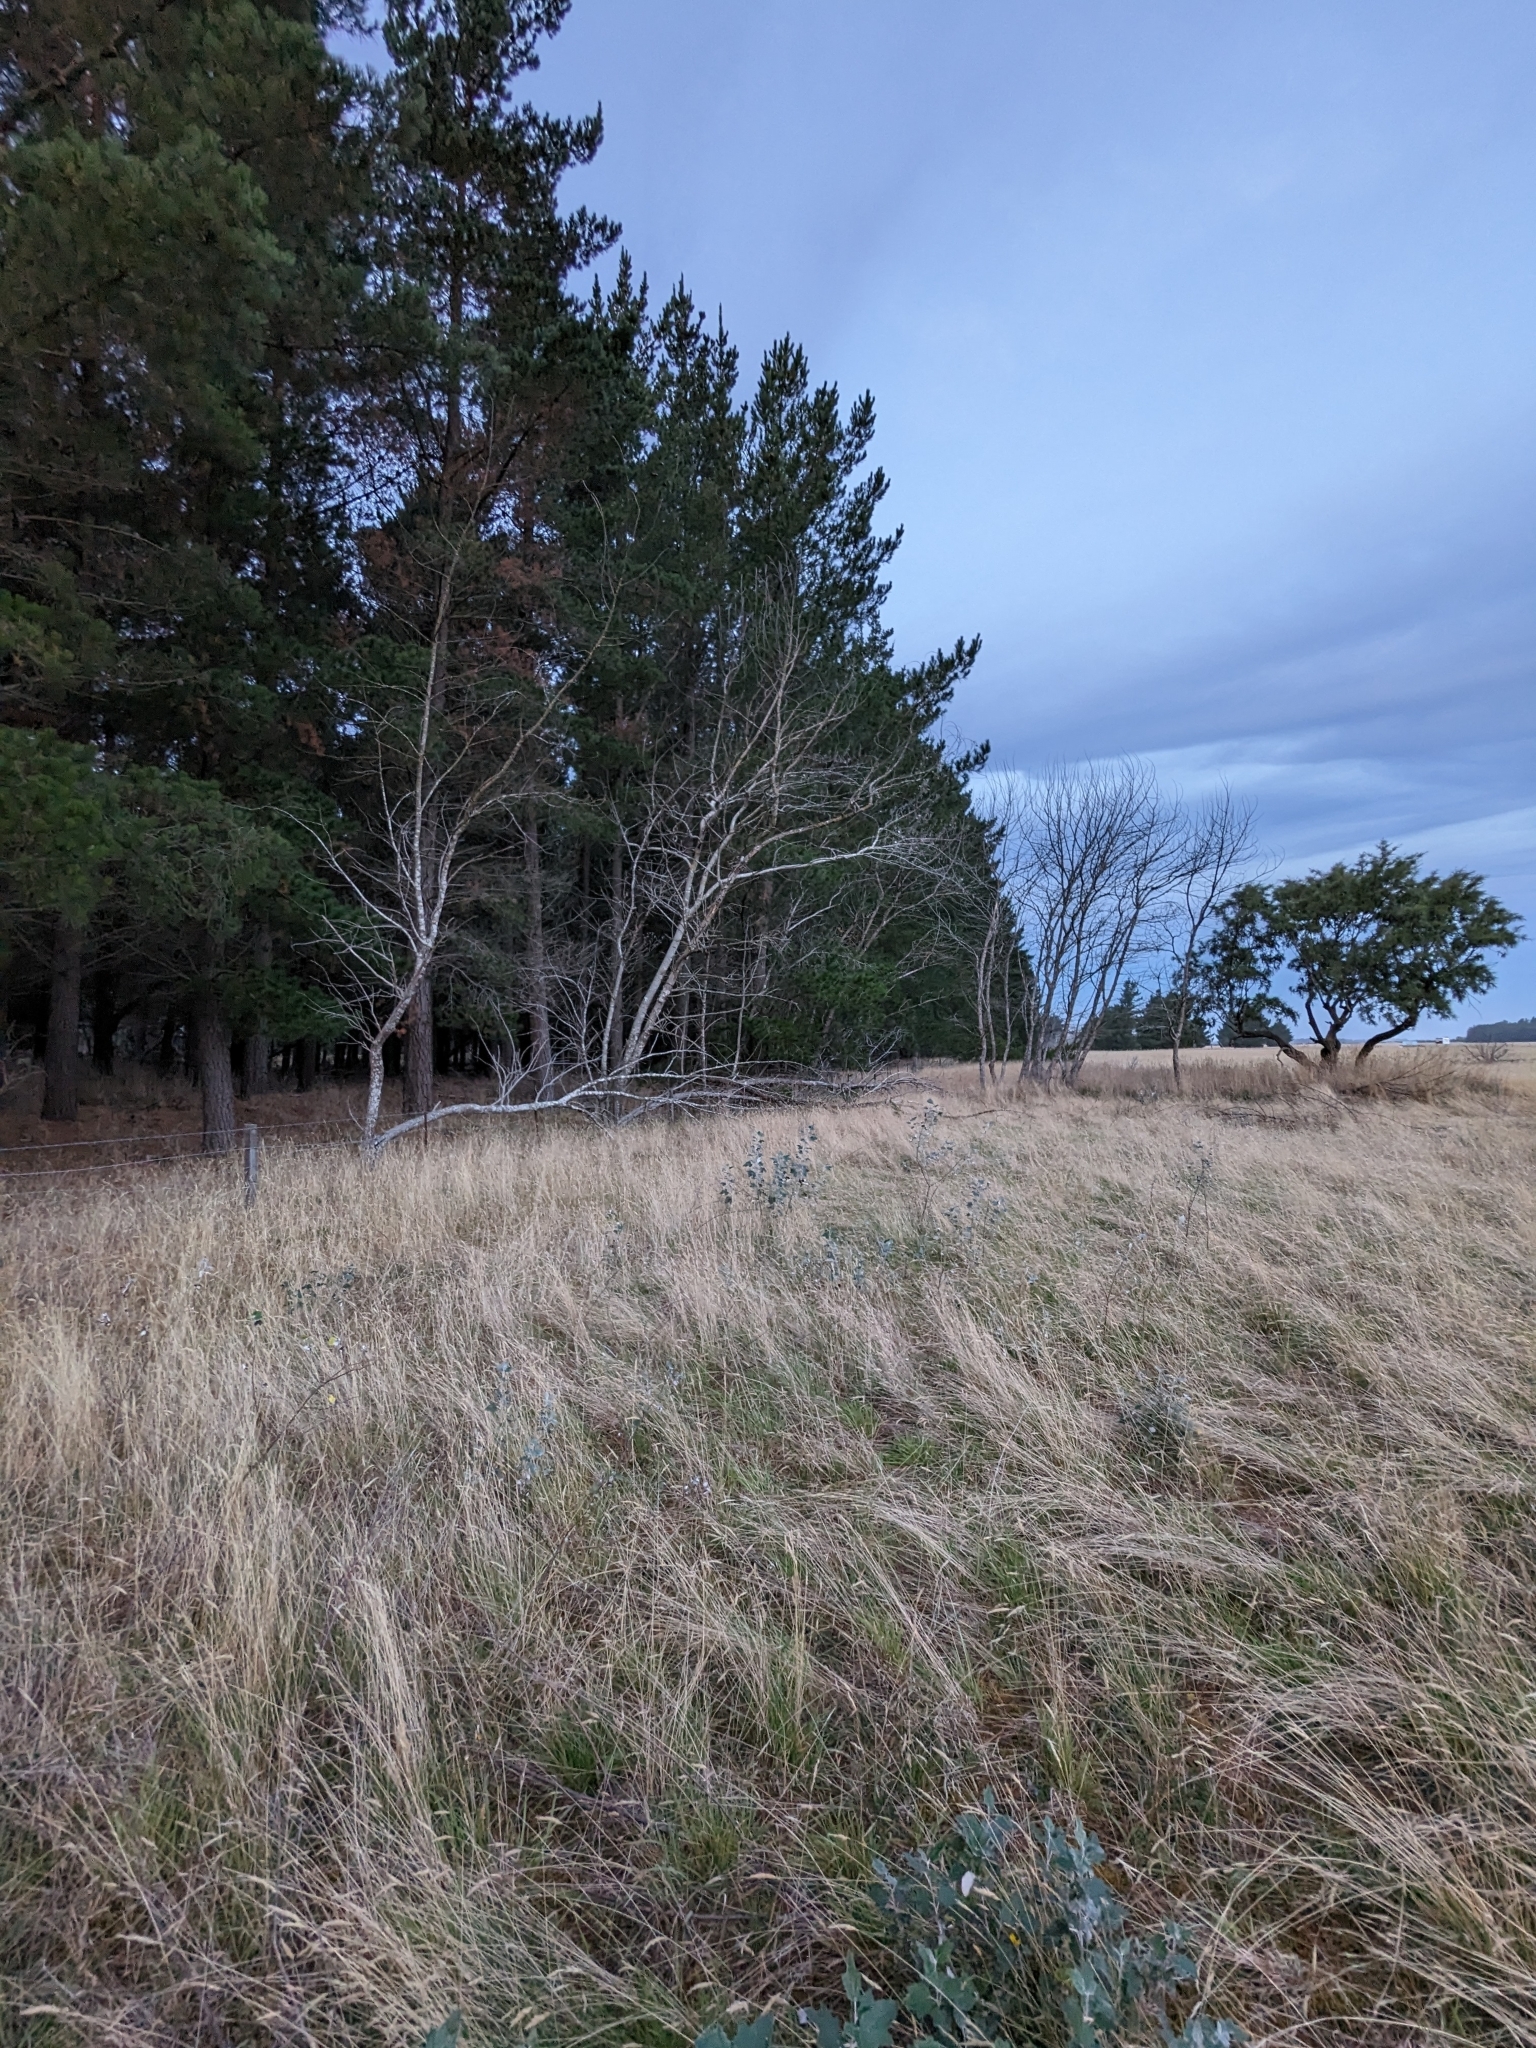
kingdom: Plantae
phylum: Tracheophyta
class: Magnoliopsida
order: Malpighiales
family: Salicaceae
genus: Populus
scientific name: Populus alba
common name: White poplar
